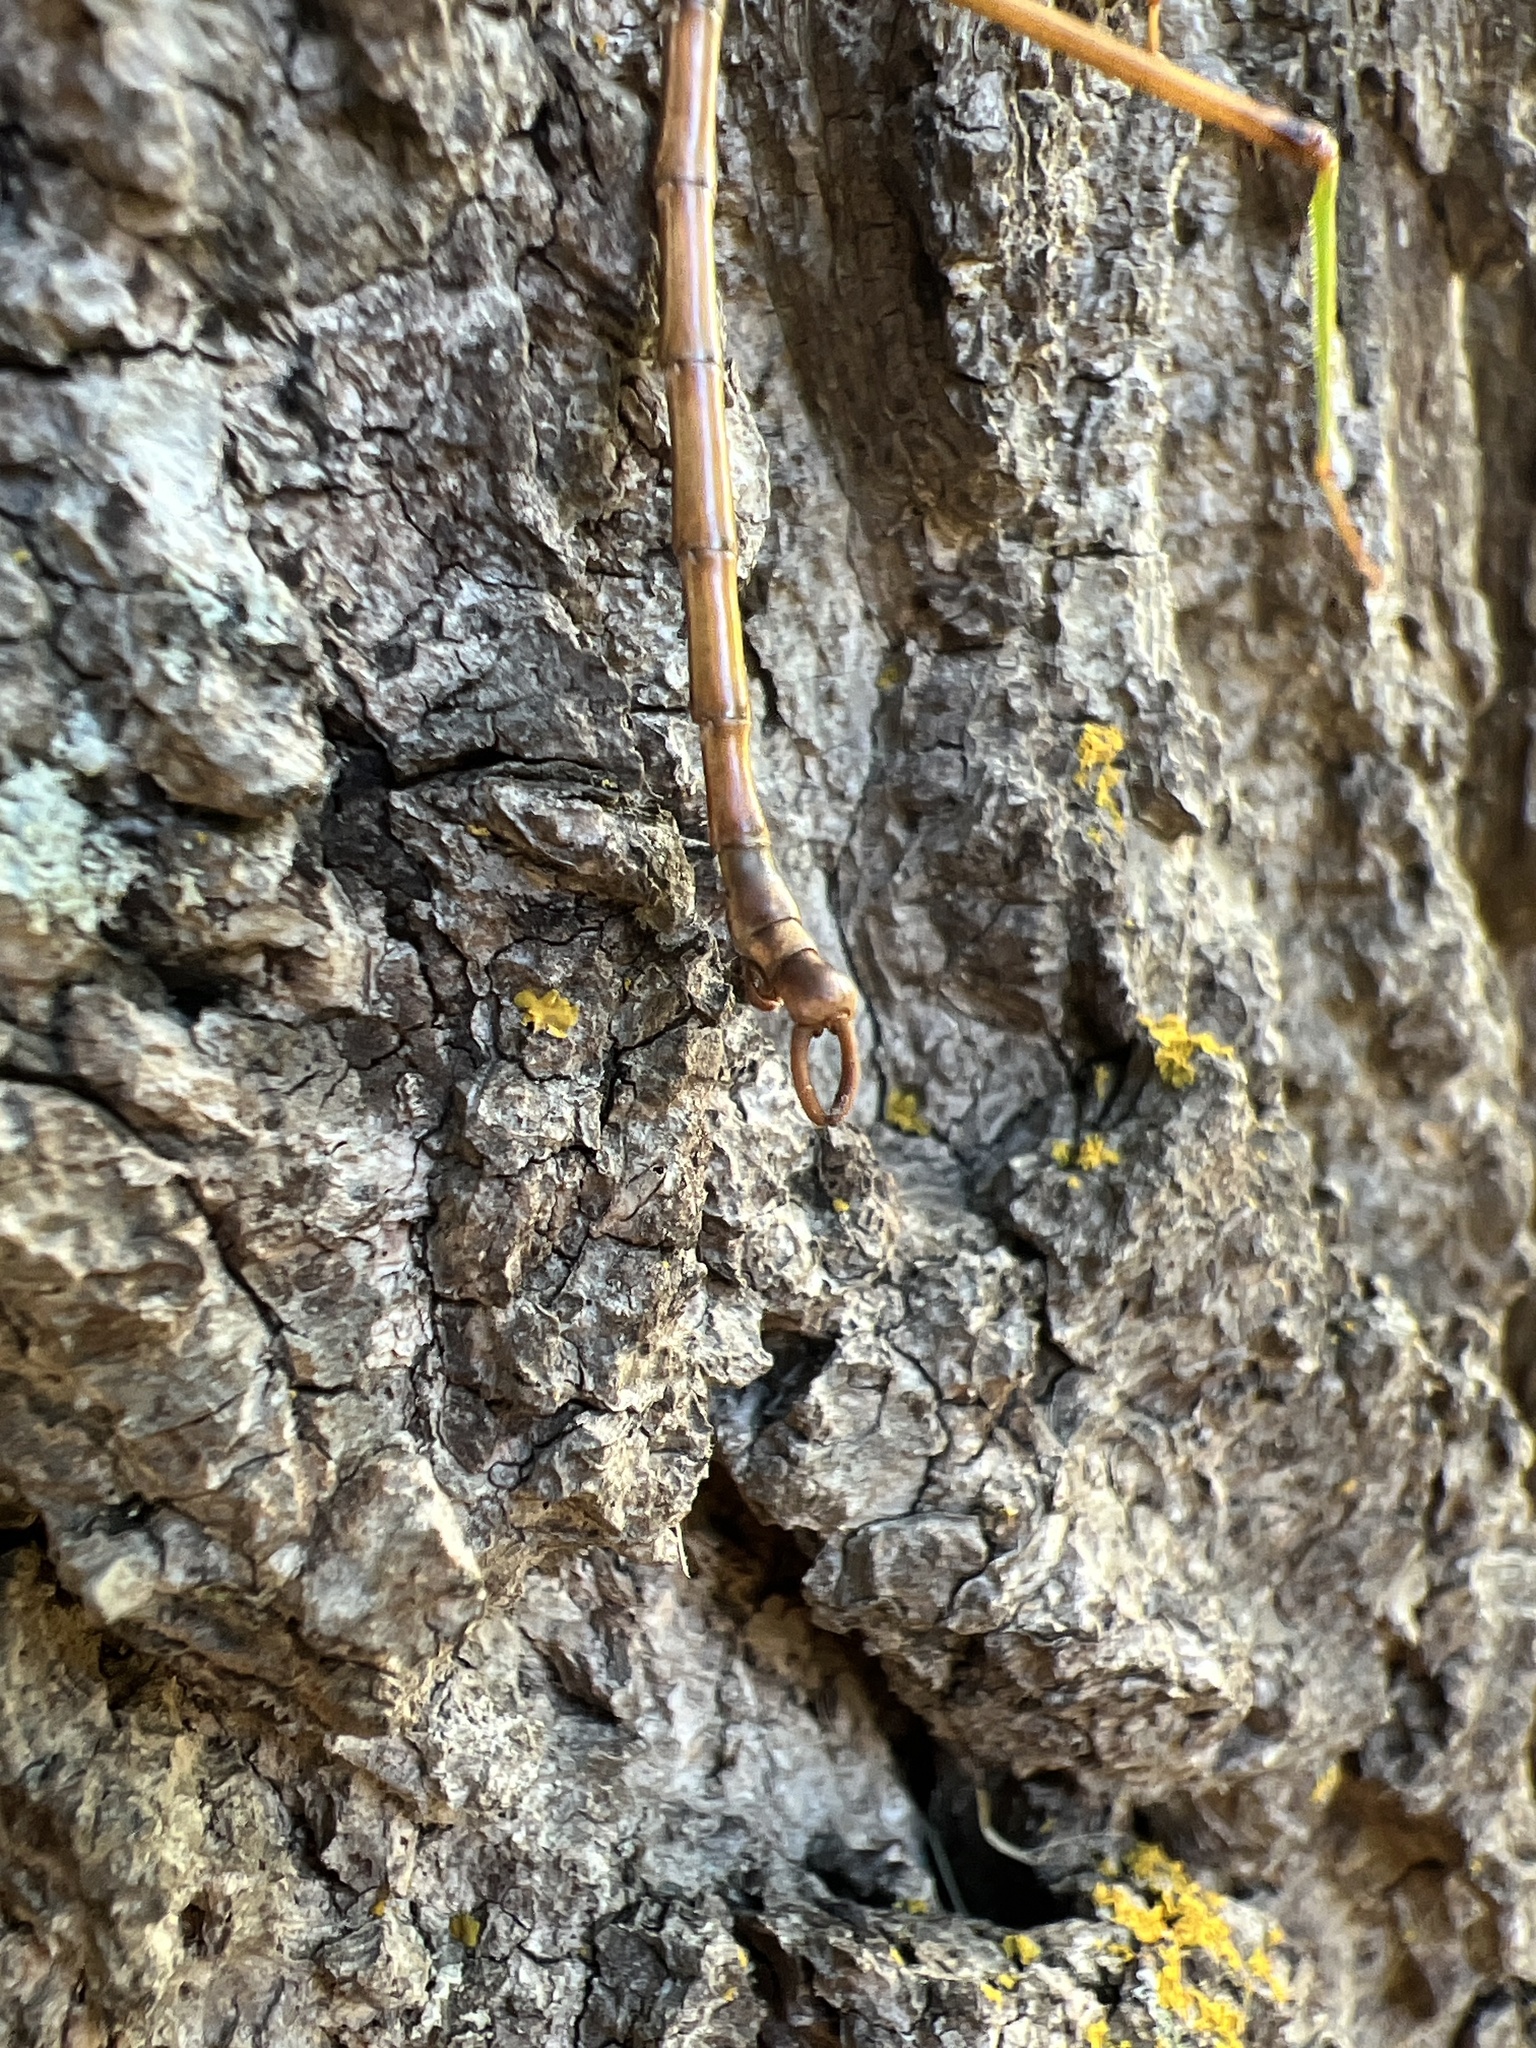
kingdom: Animalia
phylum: Arthropoda
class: Insecta
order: Phasmida
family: Diapheromeridae
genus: Diapheromera
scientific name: Diapheromera femorata
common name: Common american walkingstick
